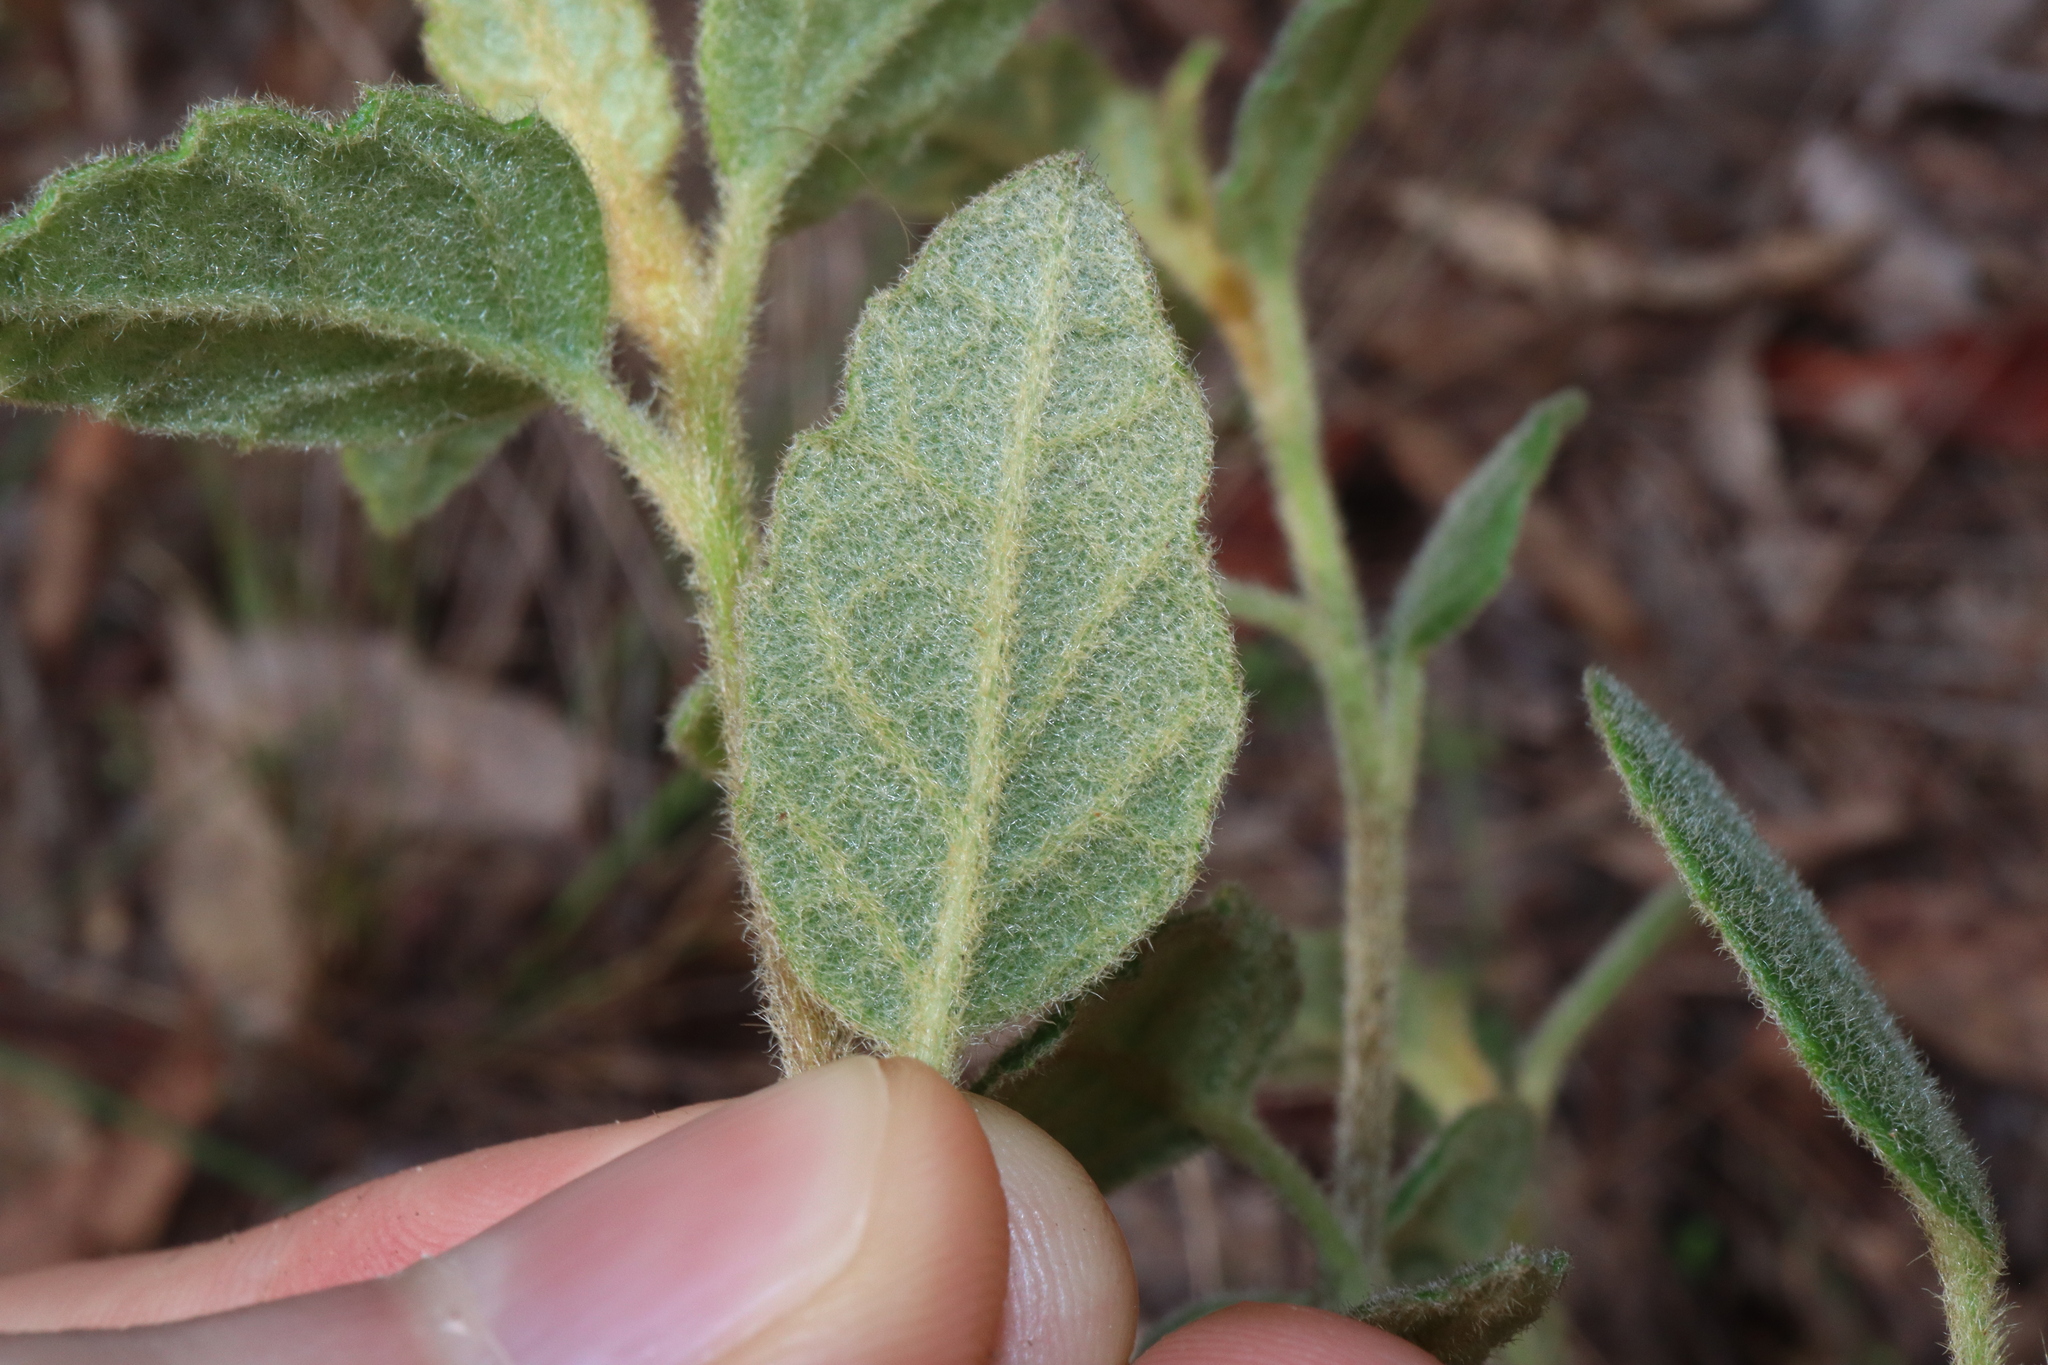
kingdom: Plantae
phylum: Tracheophyta
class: Magnoliopsida
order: Asterales
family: Asteraceae
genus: Olearia
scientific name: Olearia tomentosa
